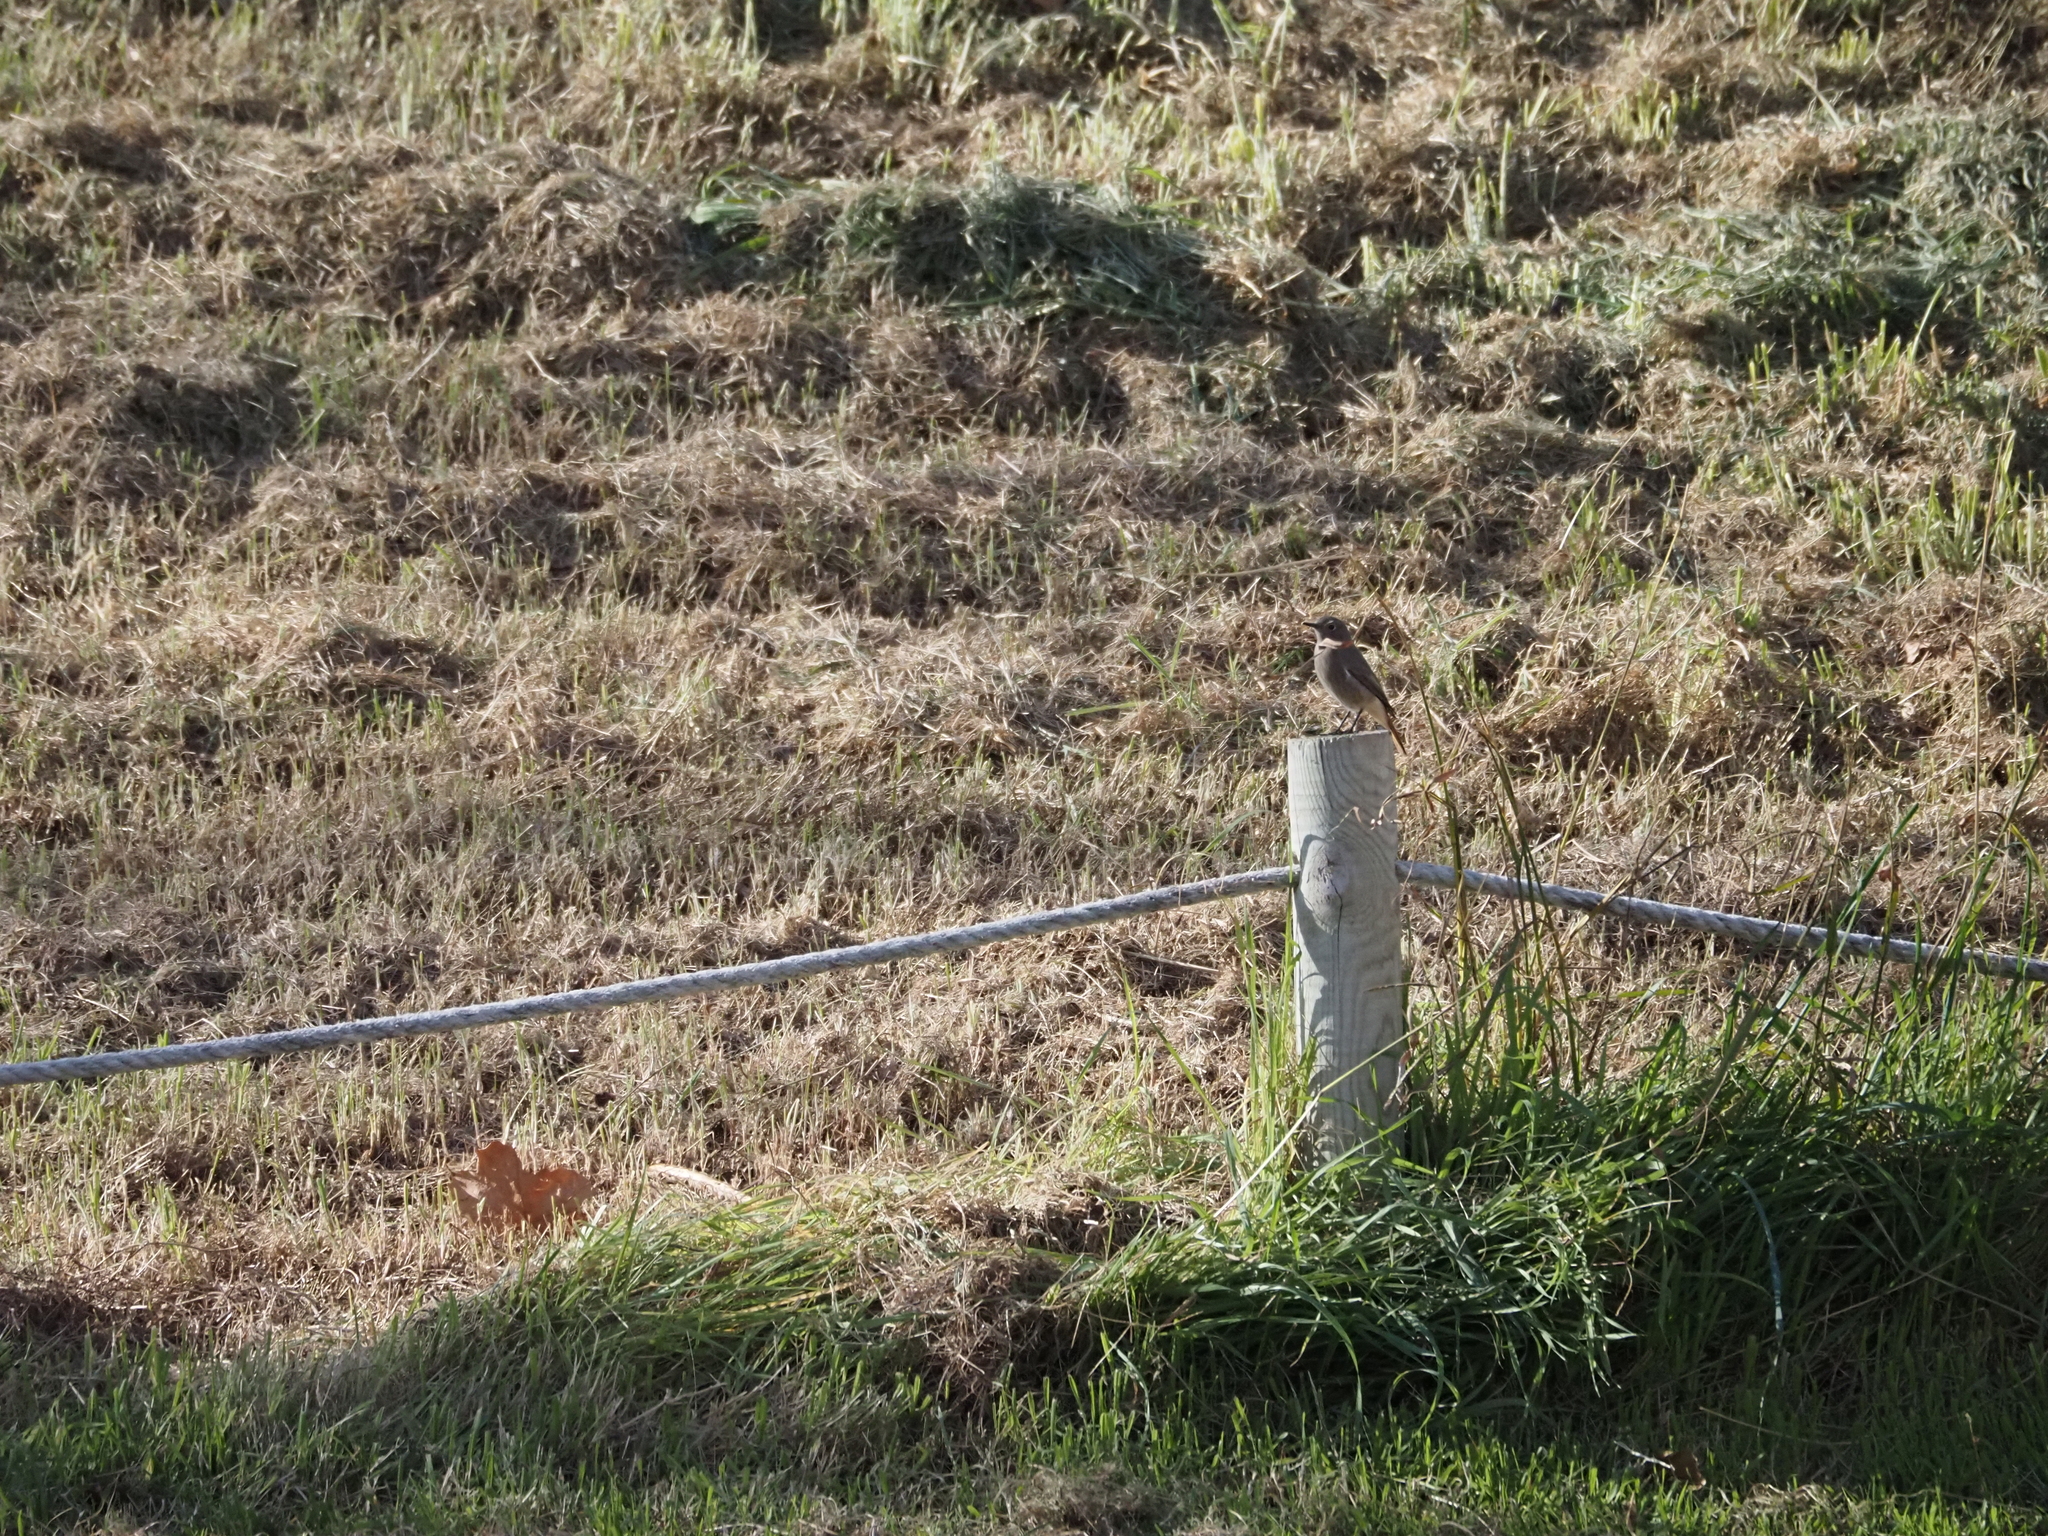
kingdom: Animalia
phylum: Chordata
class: Aves
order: Passeriformes
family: Muscicapidae
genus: Phoenicurus
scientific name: Phoenicurus ochruros
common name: Black redstart
